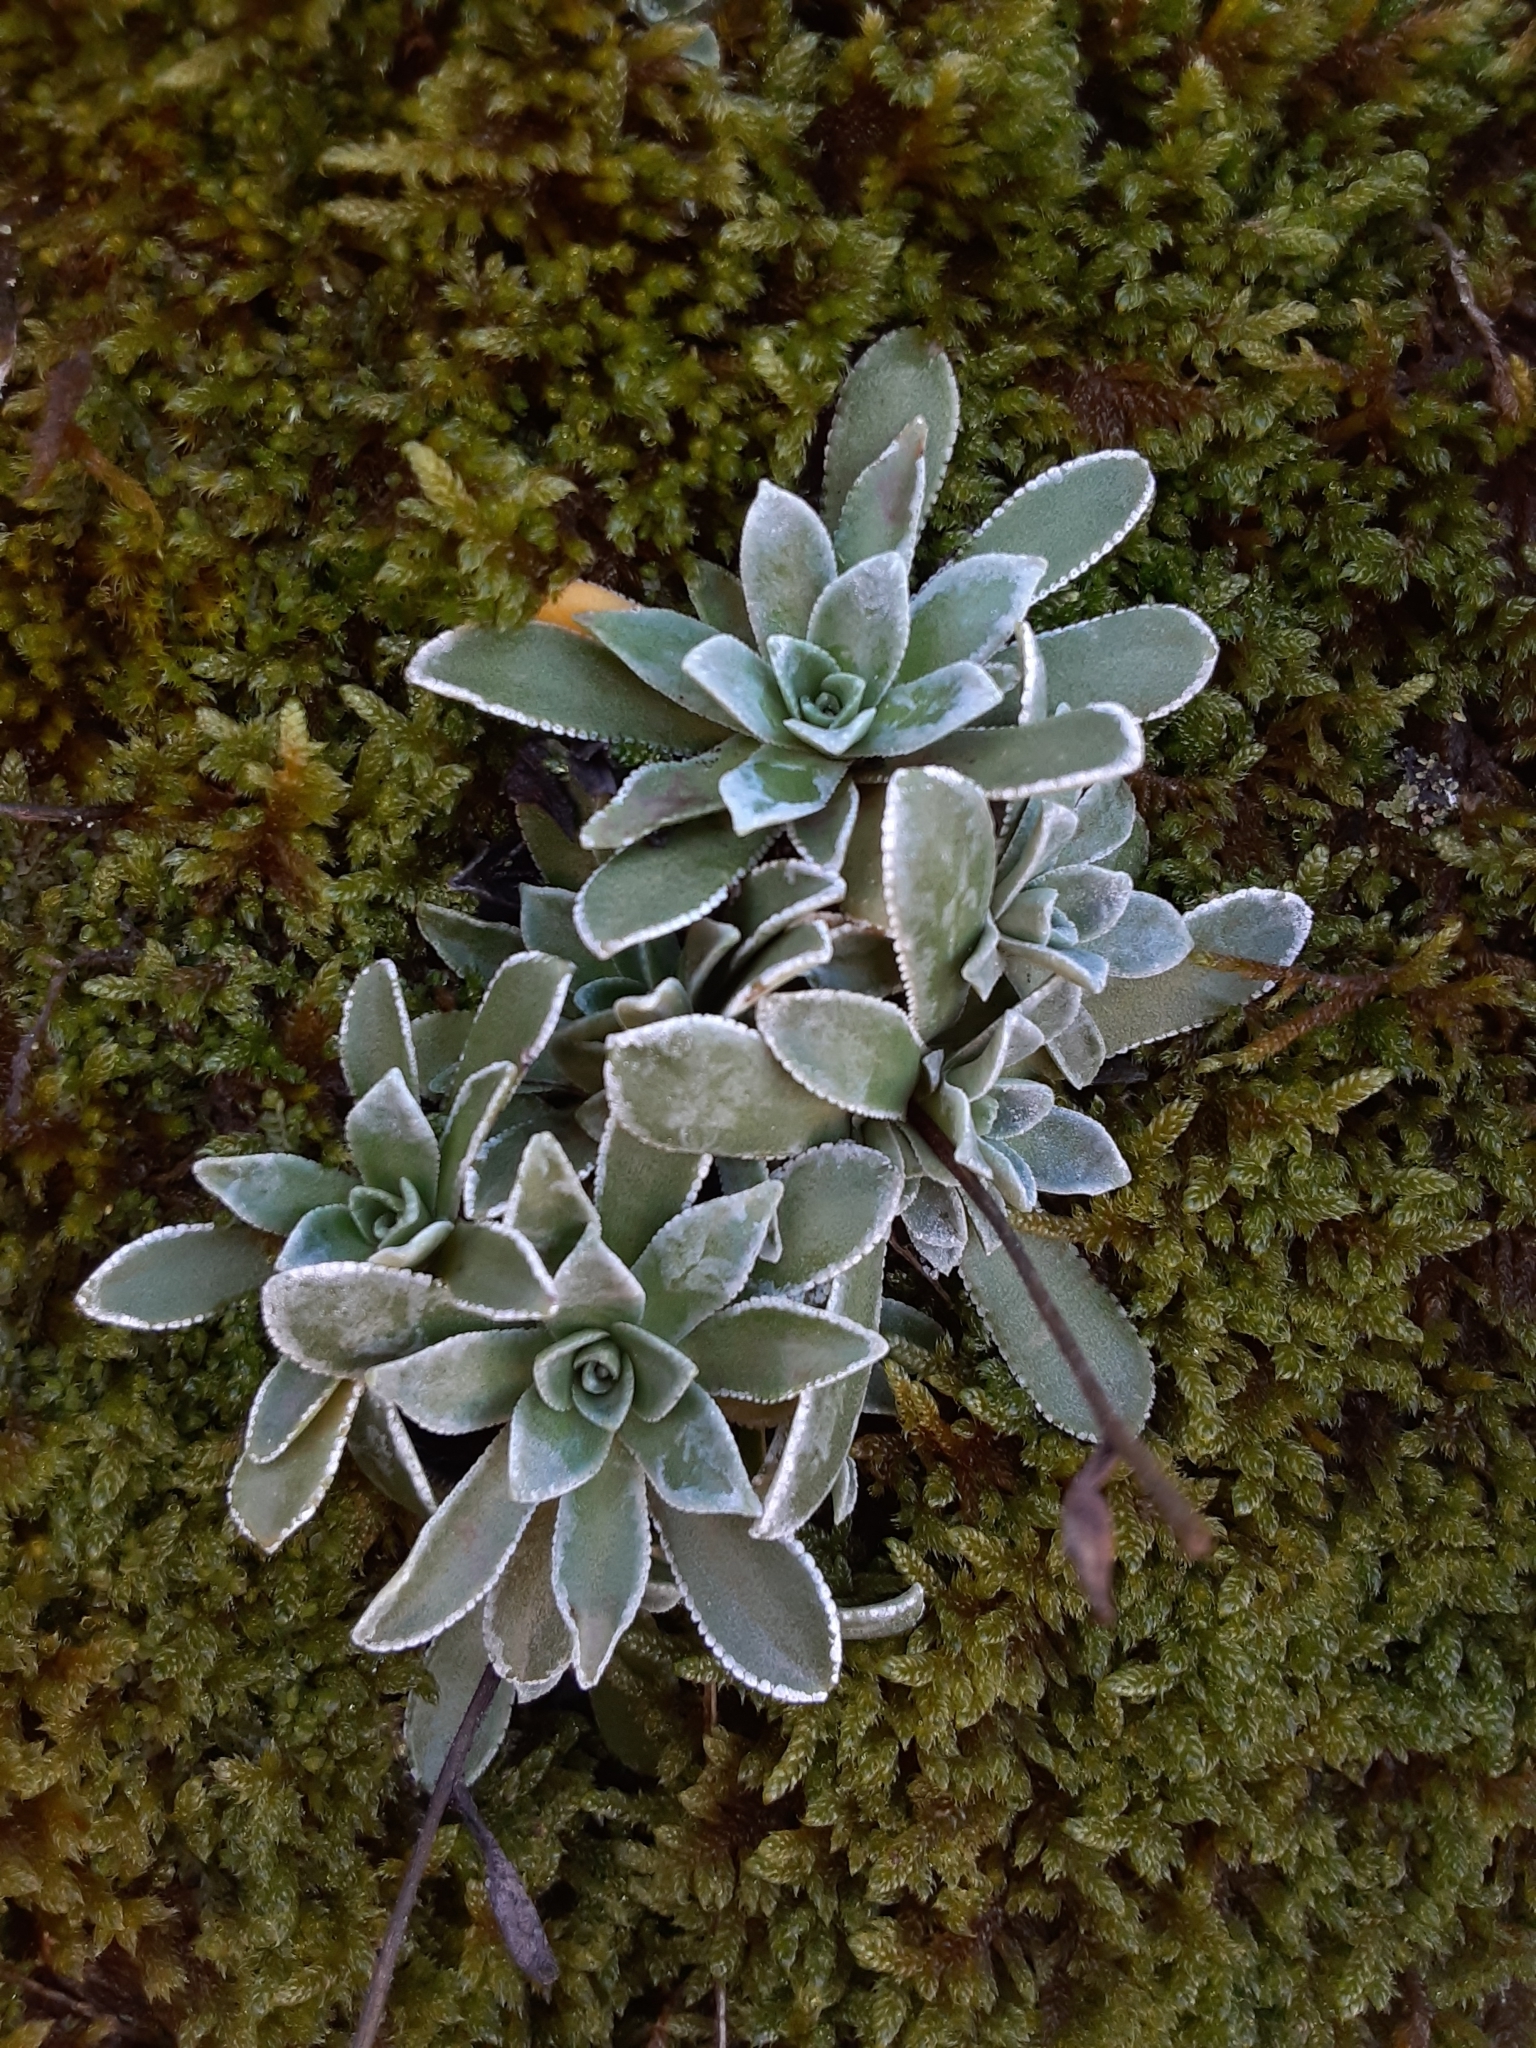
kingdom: Plantae
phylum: Tracheophyta
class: Magnoliopsida
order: Saxifragales
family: Saxifragaceae
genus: Saxifraga
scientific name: Saxifraga paniculata
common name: Livelong saxifrage
